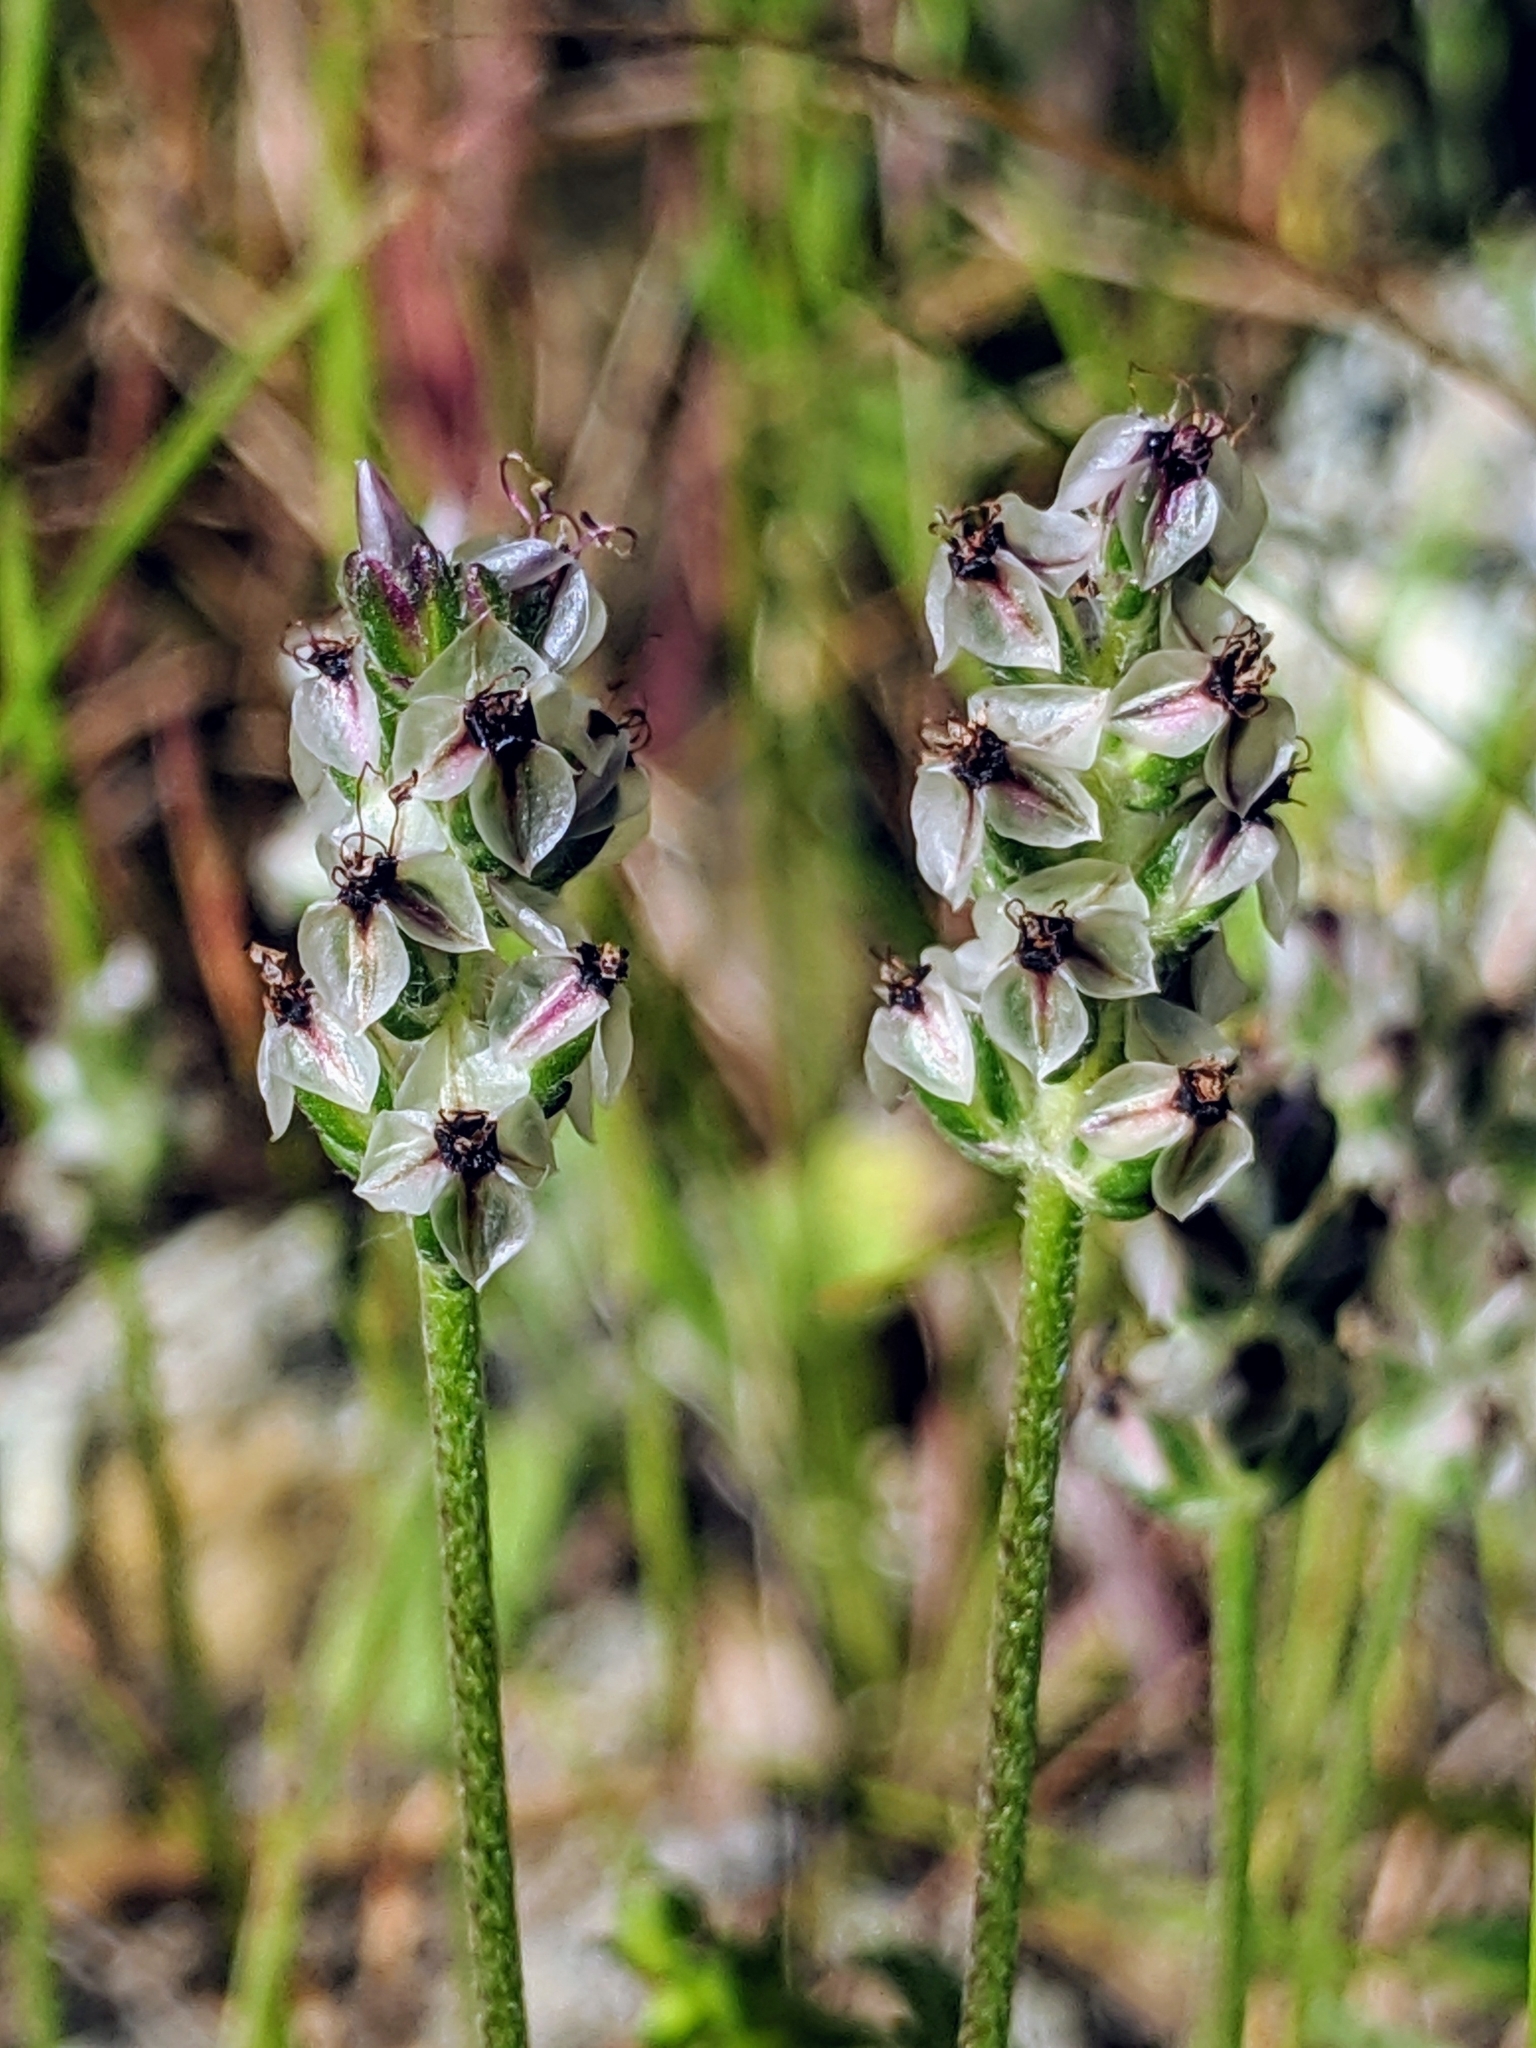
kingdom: Plantae
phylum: Tracheophyta
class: Magnoliopsida
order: Lamiales
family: Plantaginaceae
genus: Plantago
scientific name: Plantago erecta
